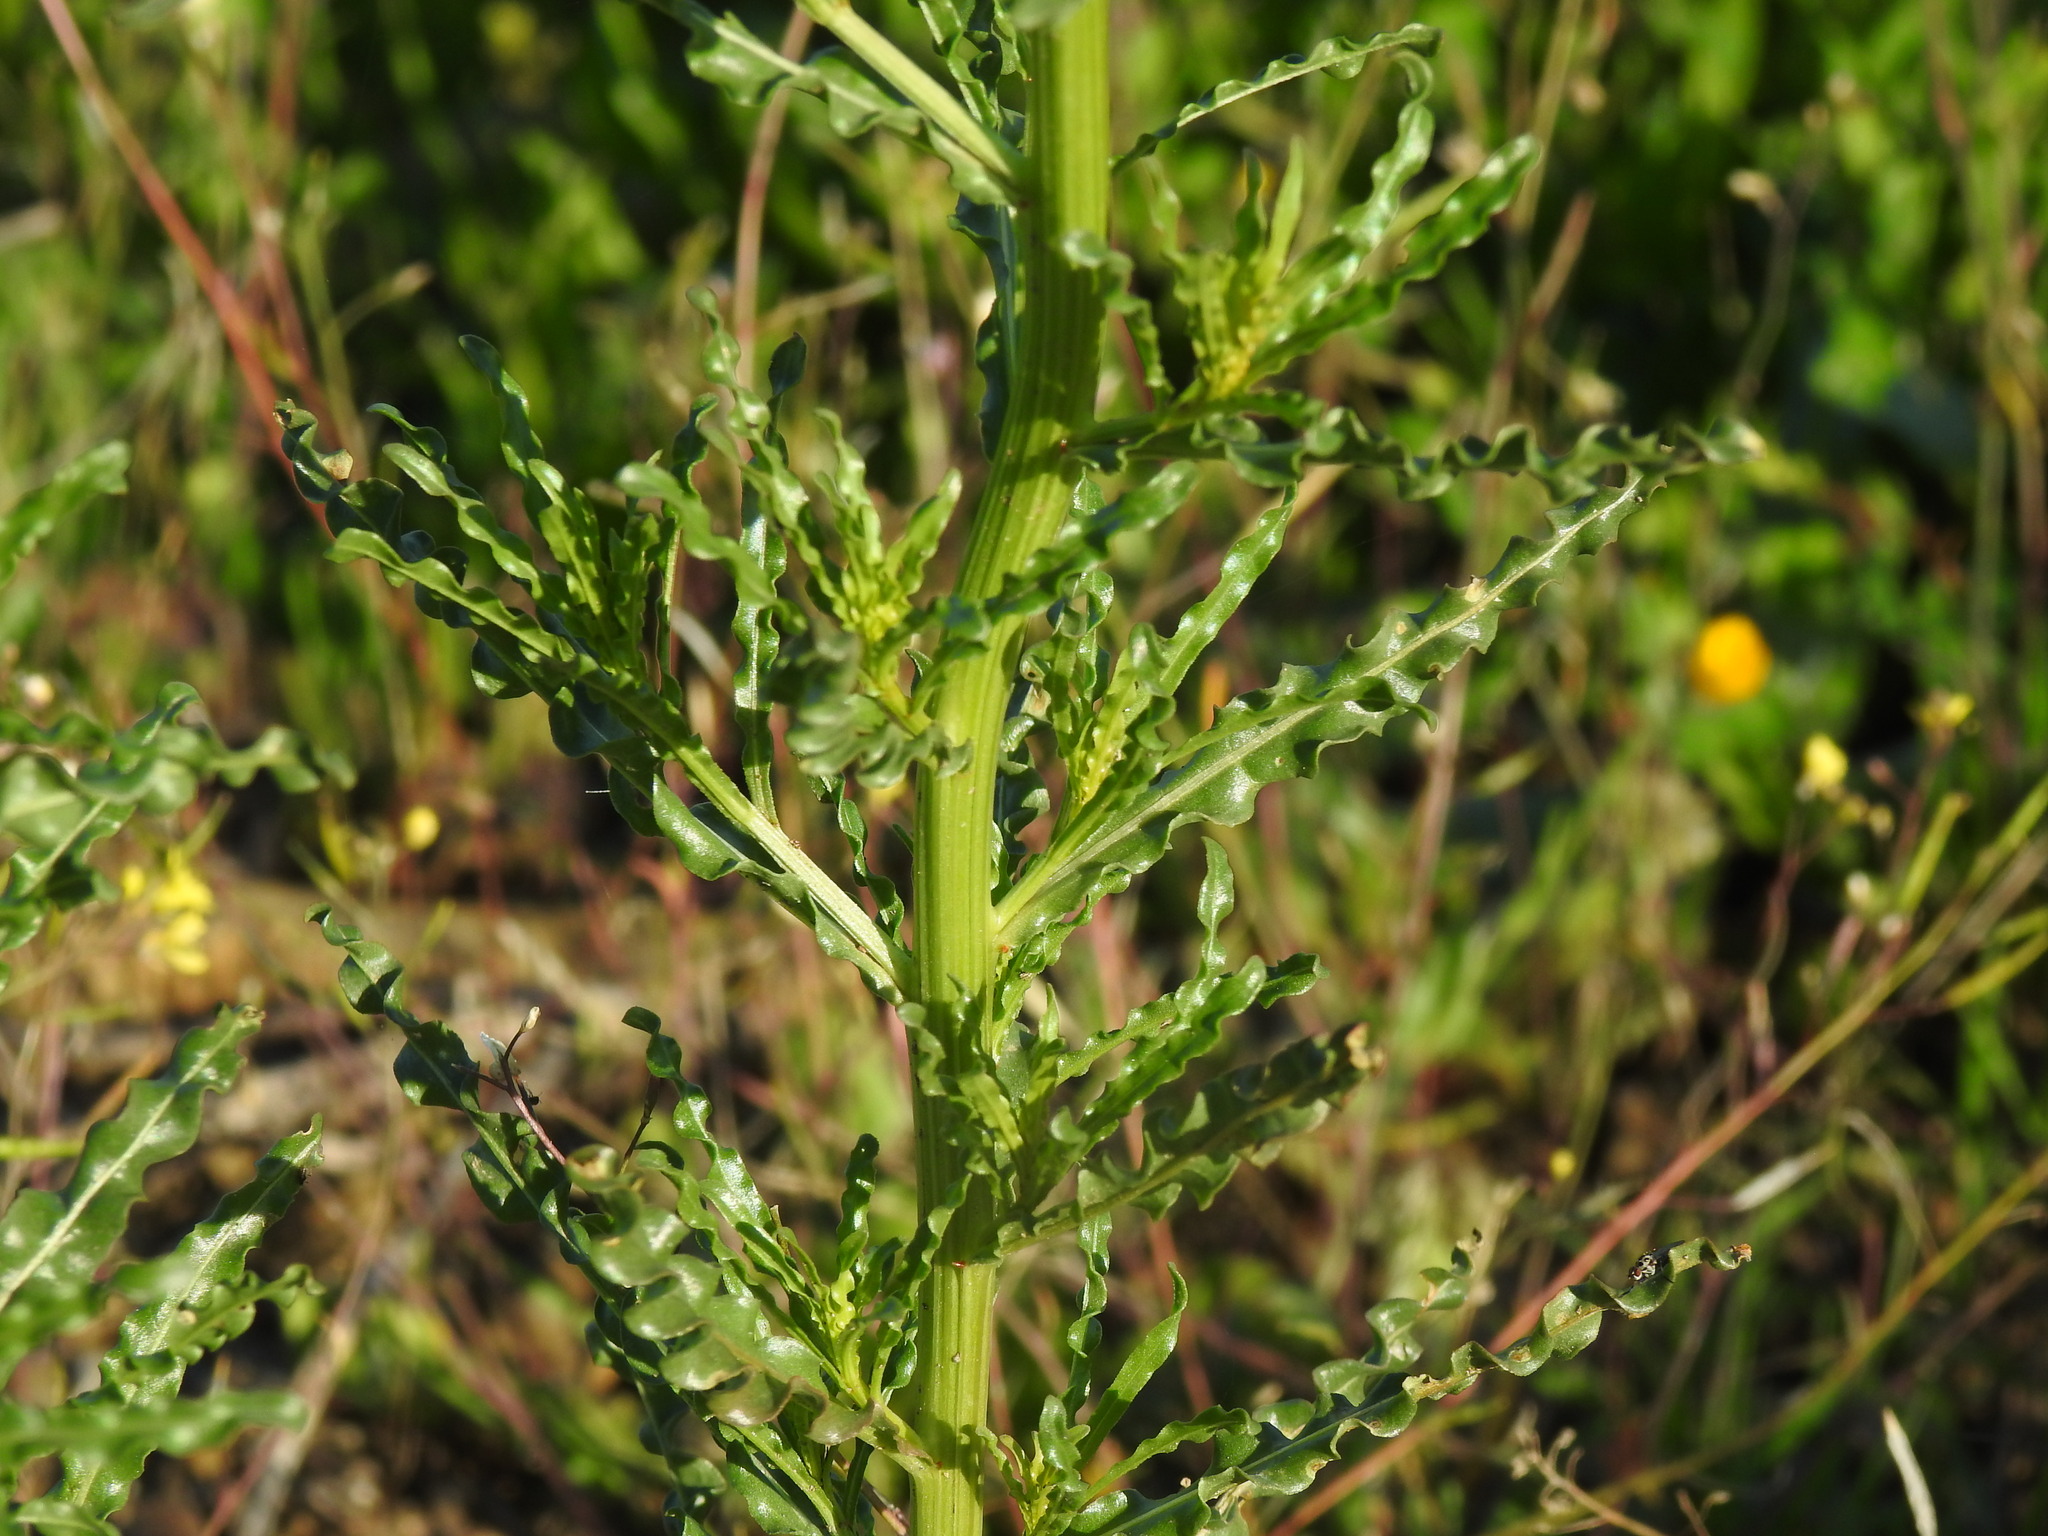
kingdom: Plantae
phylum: Tracheophyta
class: Magnoliopsida
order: Brassicales
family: Resedaceae
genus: Reseda
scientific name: Reseda luteola
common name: Weld
